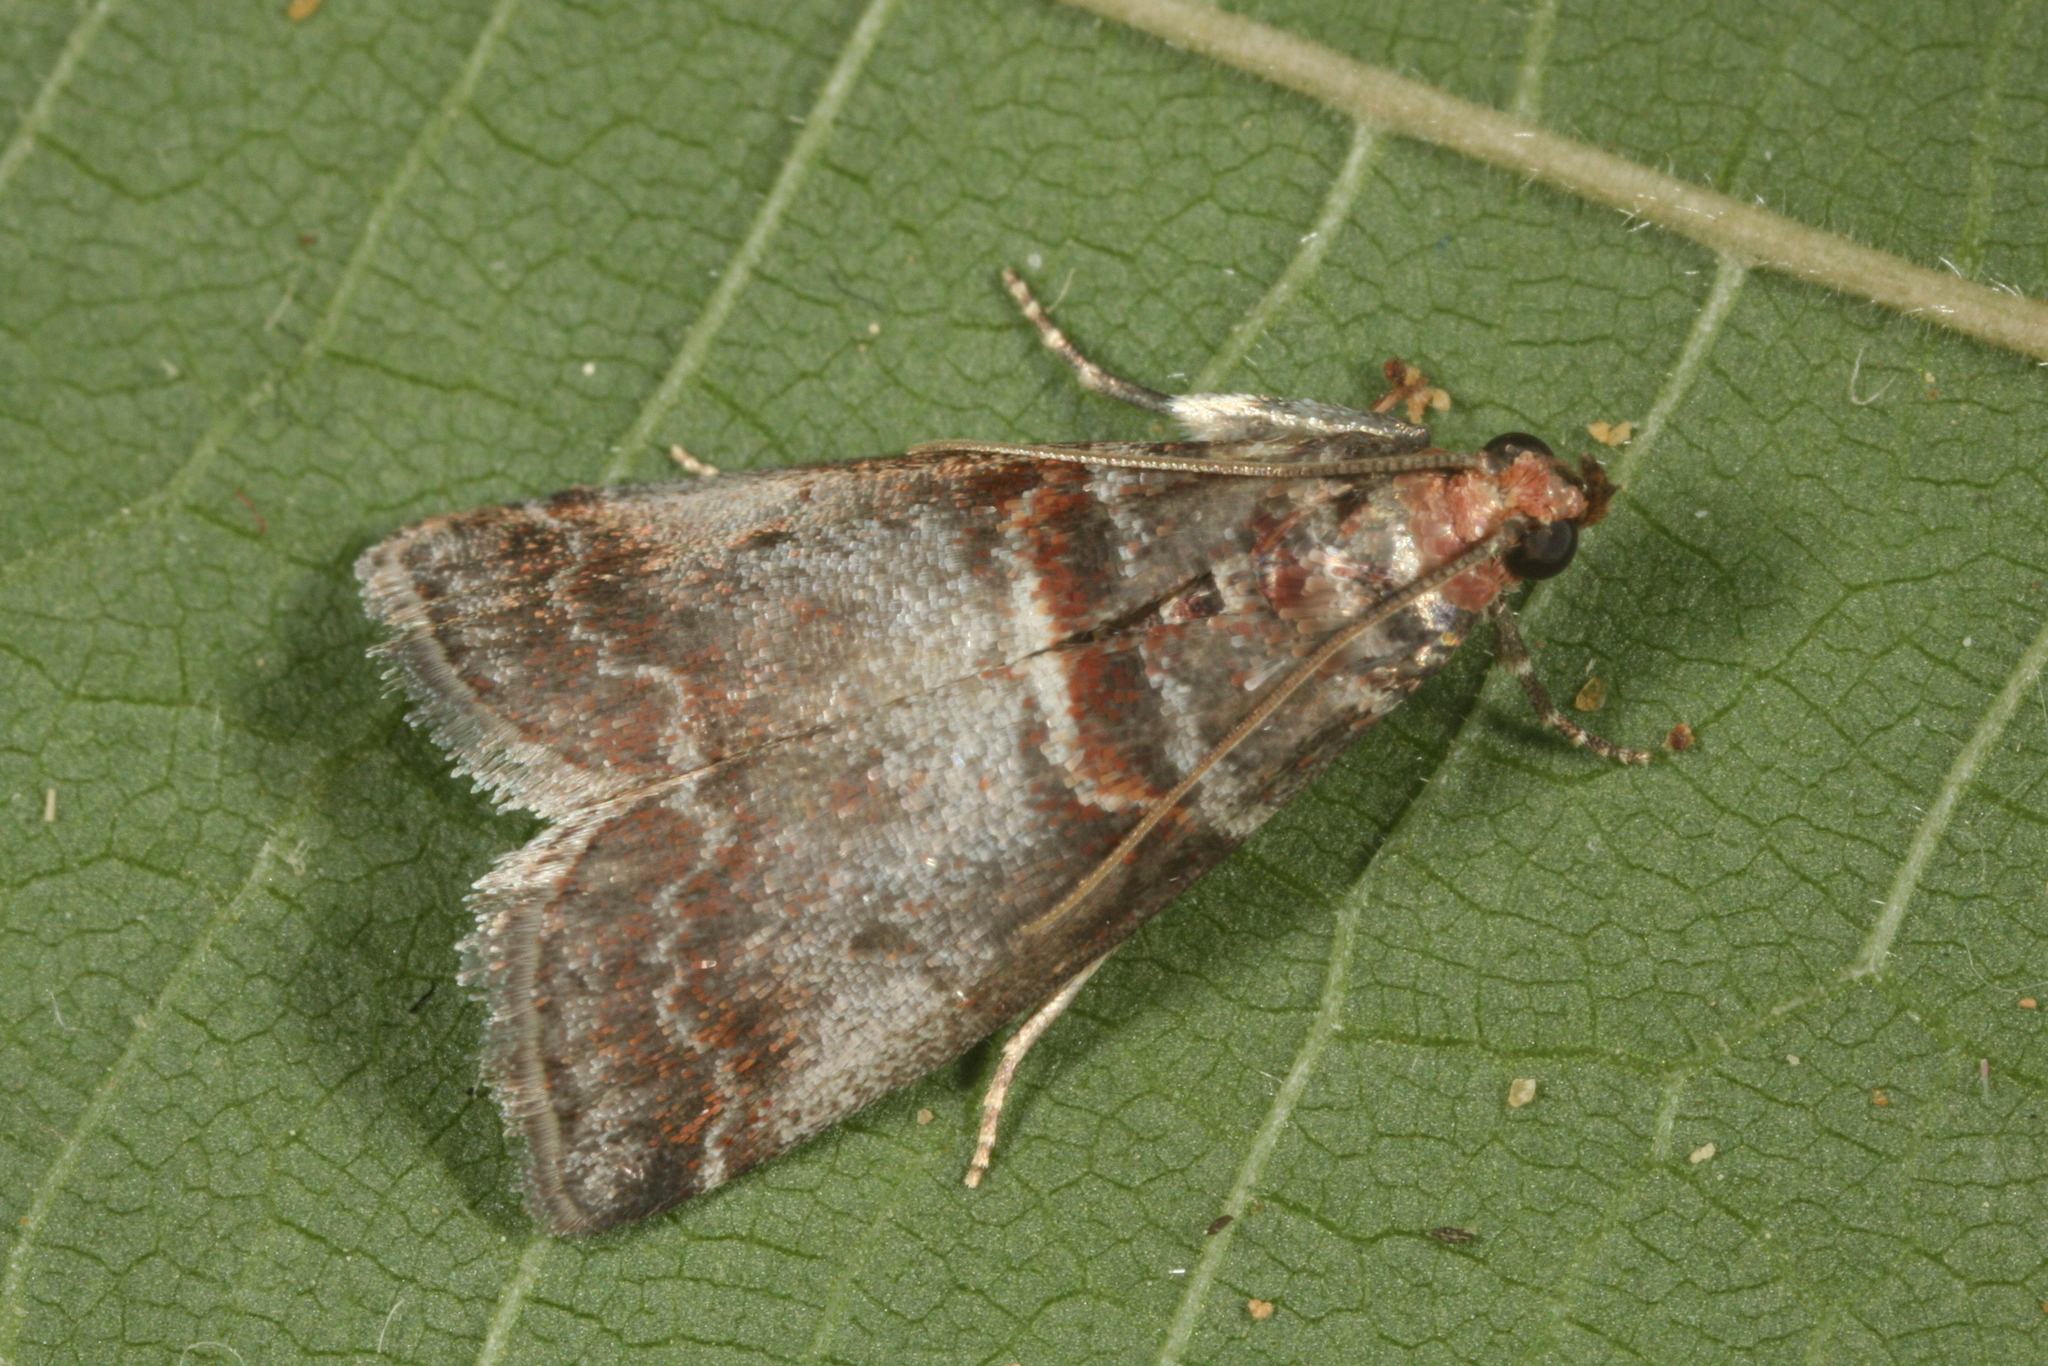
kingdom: Animalia
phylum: Arthropoda
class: Insecta
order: Lepidoptera
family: Pyralidae
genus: Acrobasis
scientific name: Acrobasis advenella
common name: Grey knot-horn
